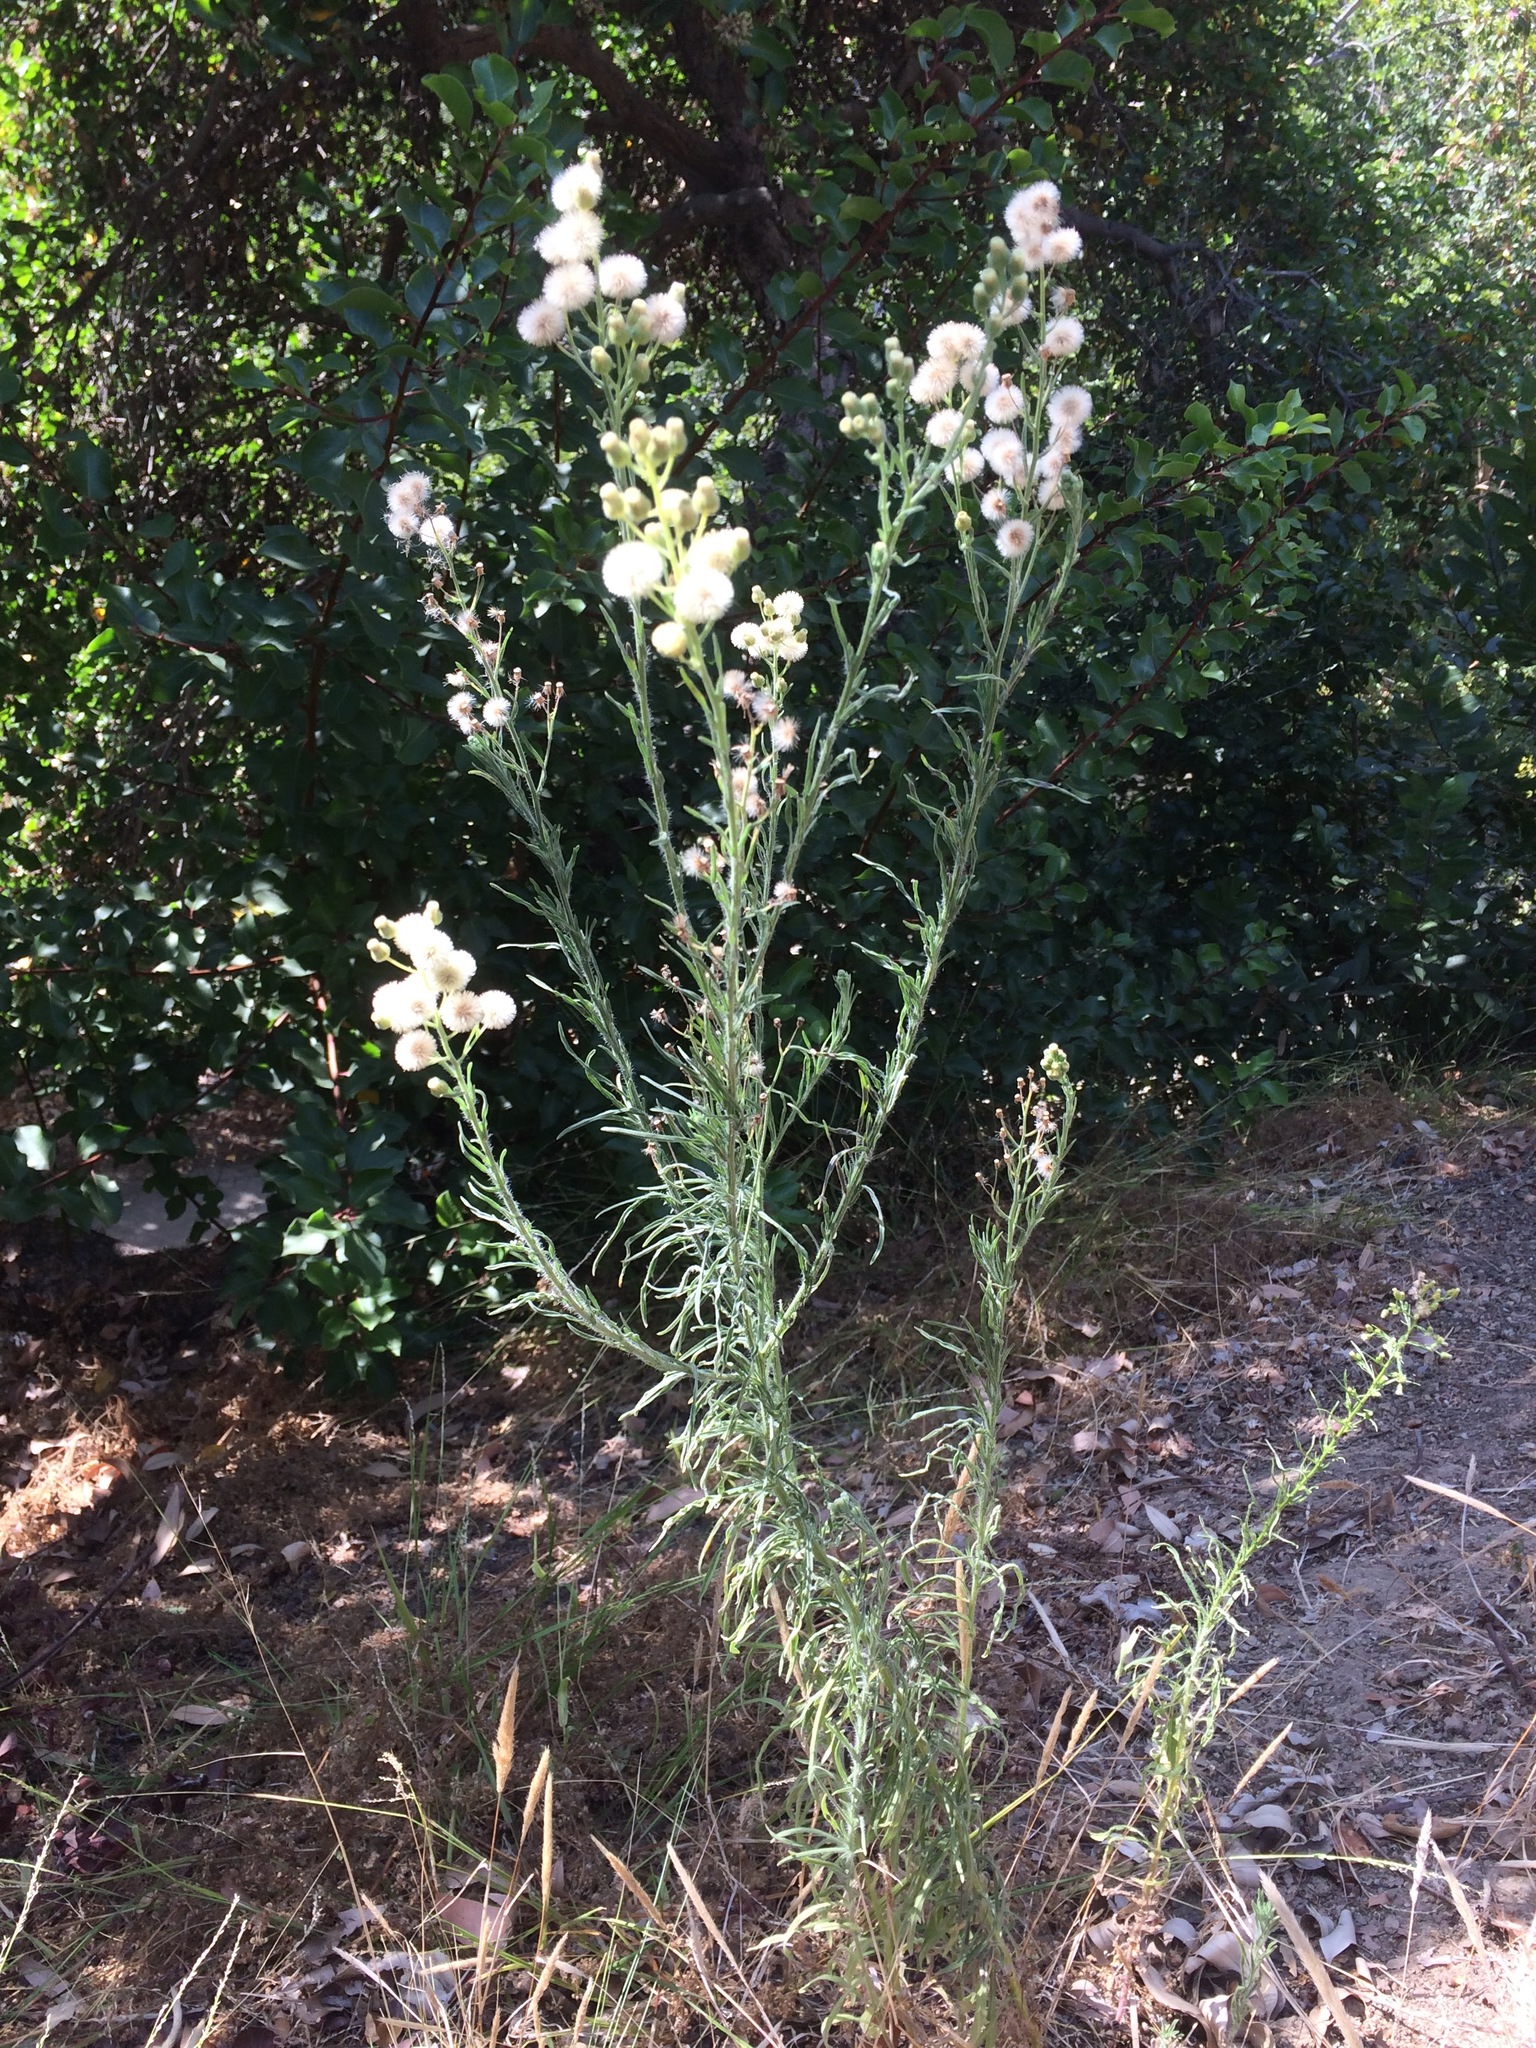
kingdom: Plantae
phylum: Tracheophyta
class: Magnoliopsida
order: Asterales
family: Asteraceae
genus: Erigeron
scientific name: Erigeron bonariensis
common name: Argentine fleabane
